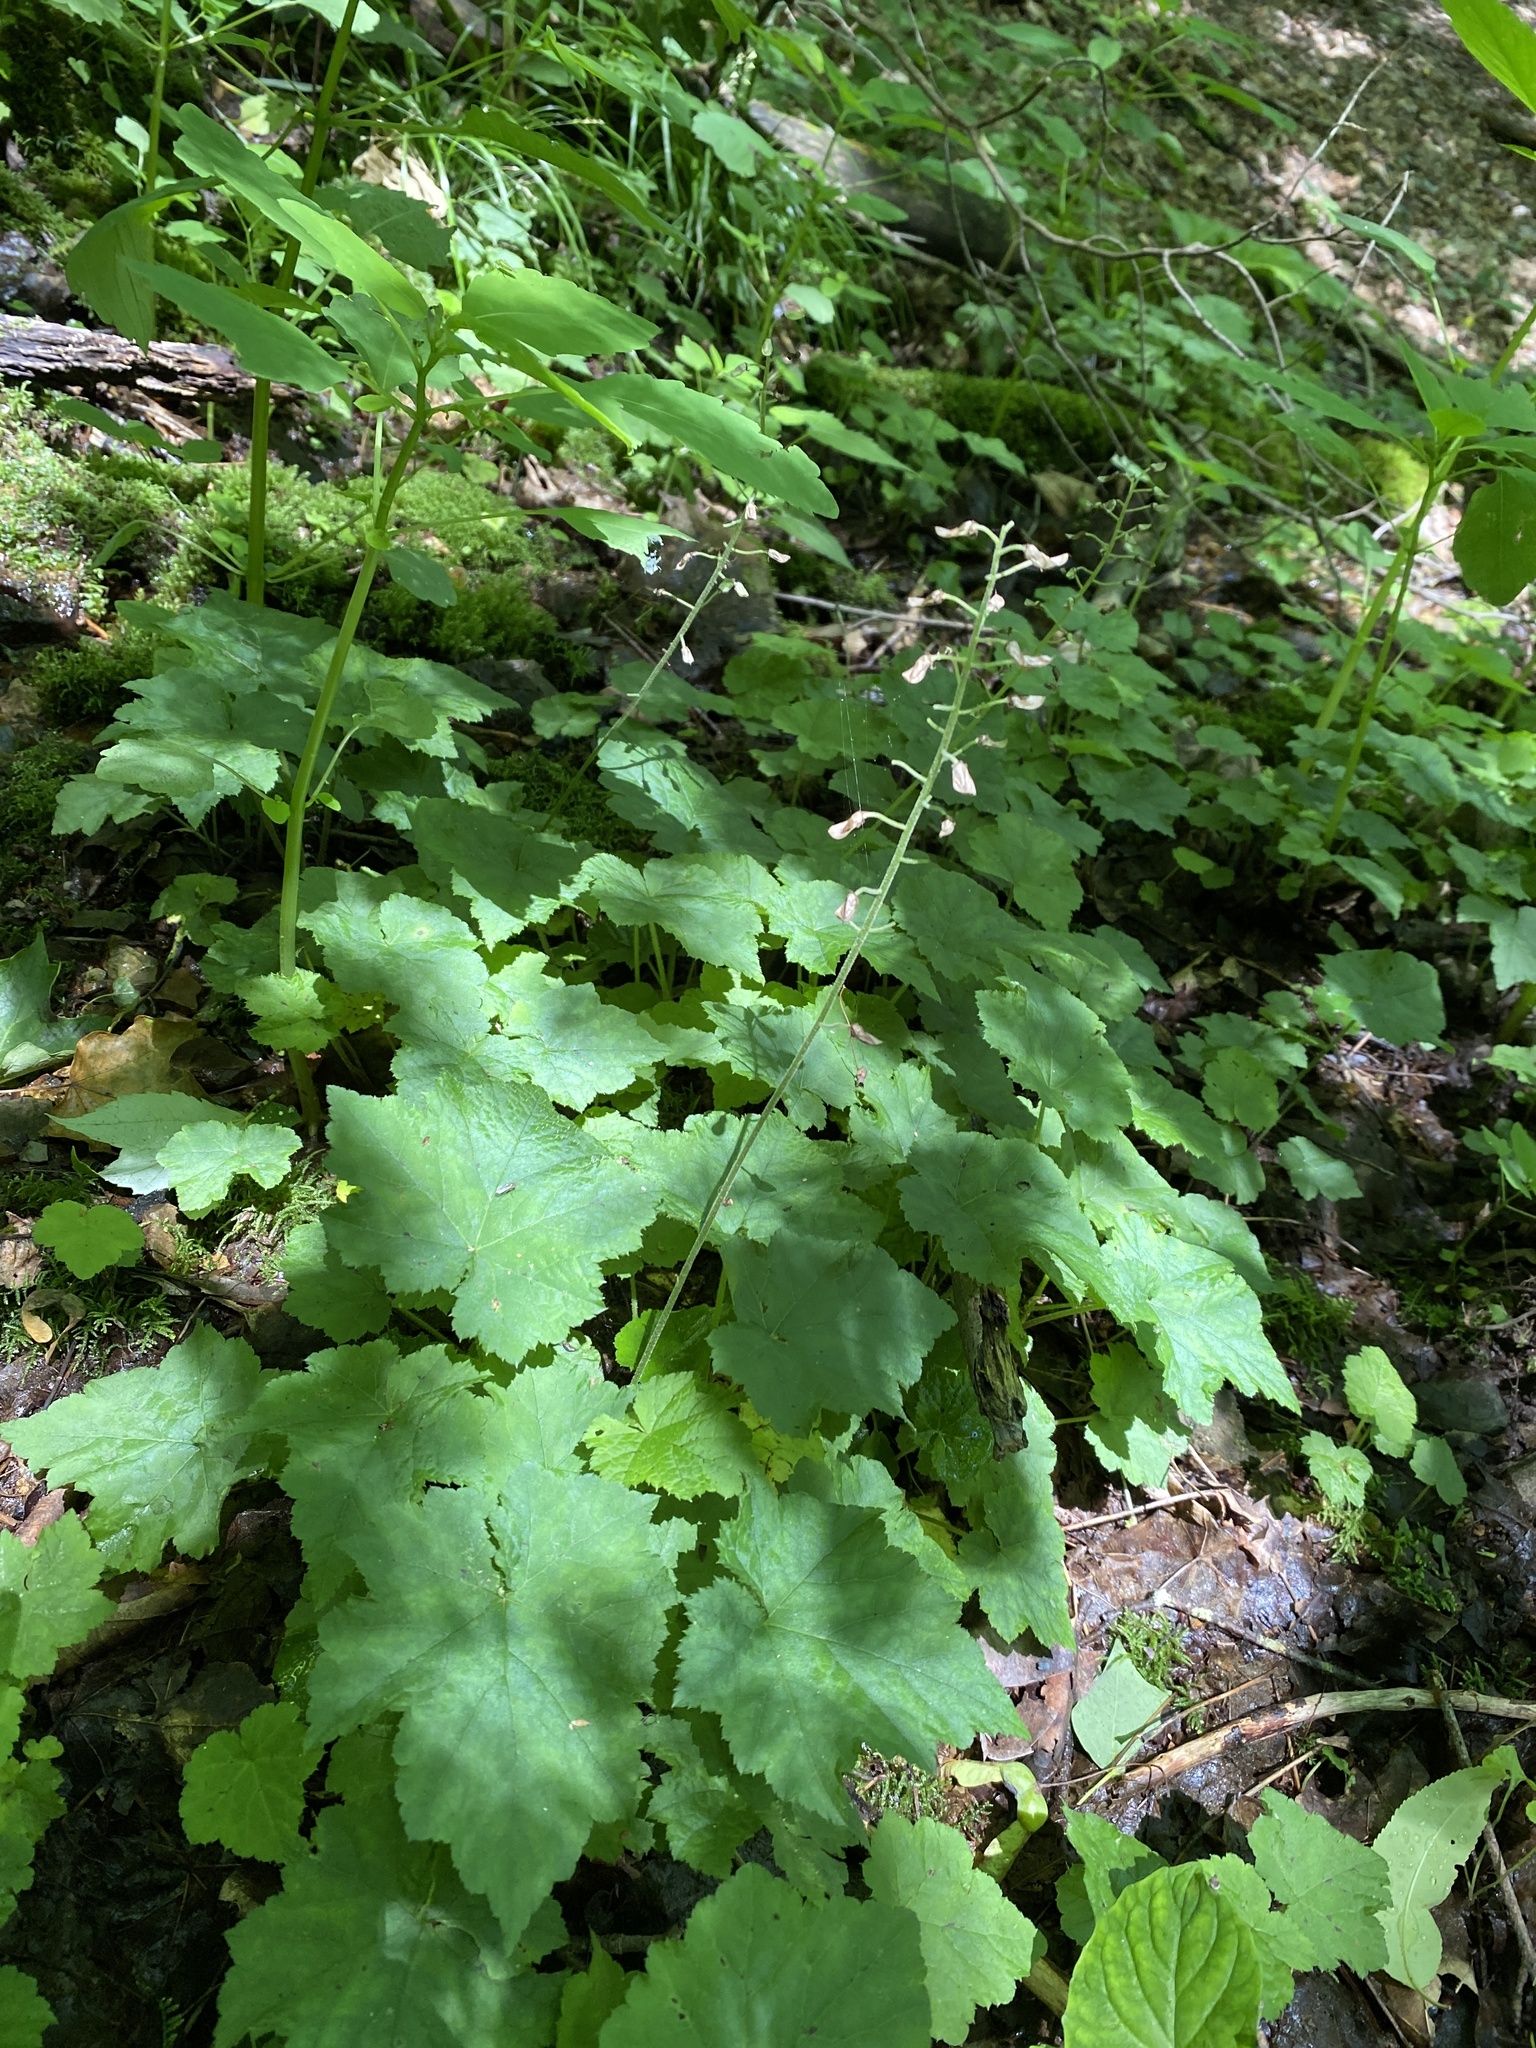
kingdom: Plantae
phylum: Tracheophyta
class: Magnoliopsida
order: Saxifragales
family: Saxifragaceae
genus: Tiarella
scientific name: Tiarella stolonifera
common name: Stoloniferous foamflower
